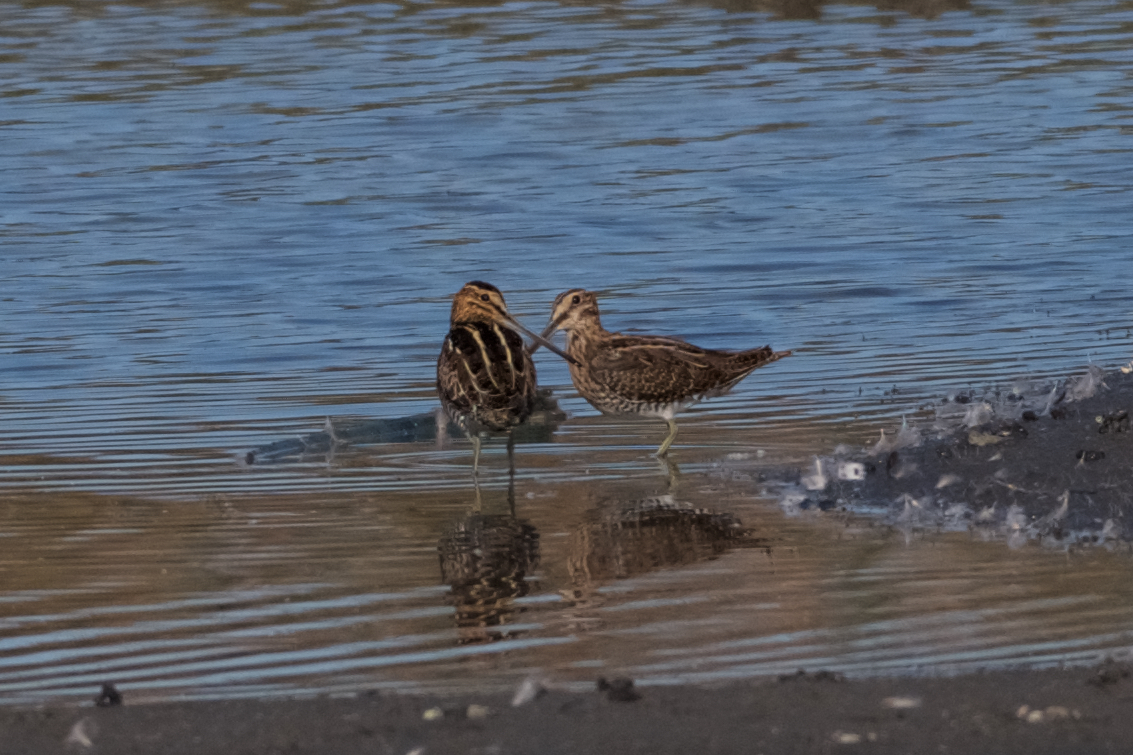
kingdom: Animalia
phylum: Chordata
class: Aves
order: Charadriiformes
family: Scolopacidae
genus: Gallinago
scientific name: Gallinago delicata
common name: Wilson's snipe
